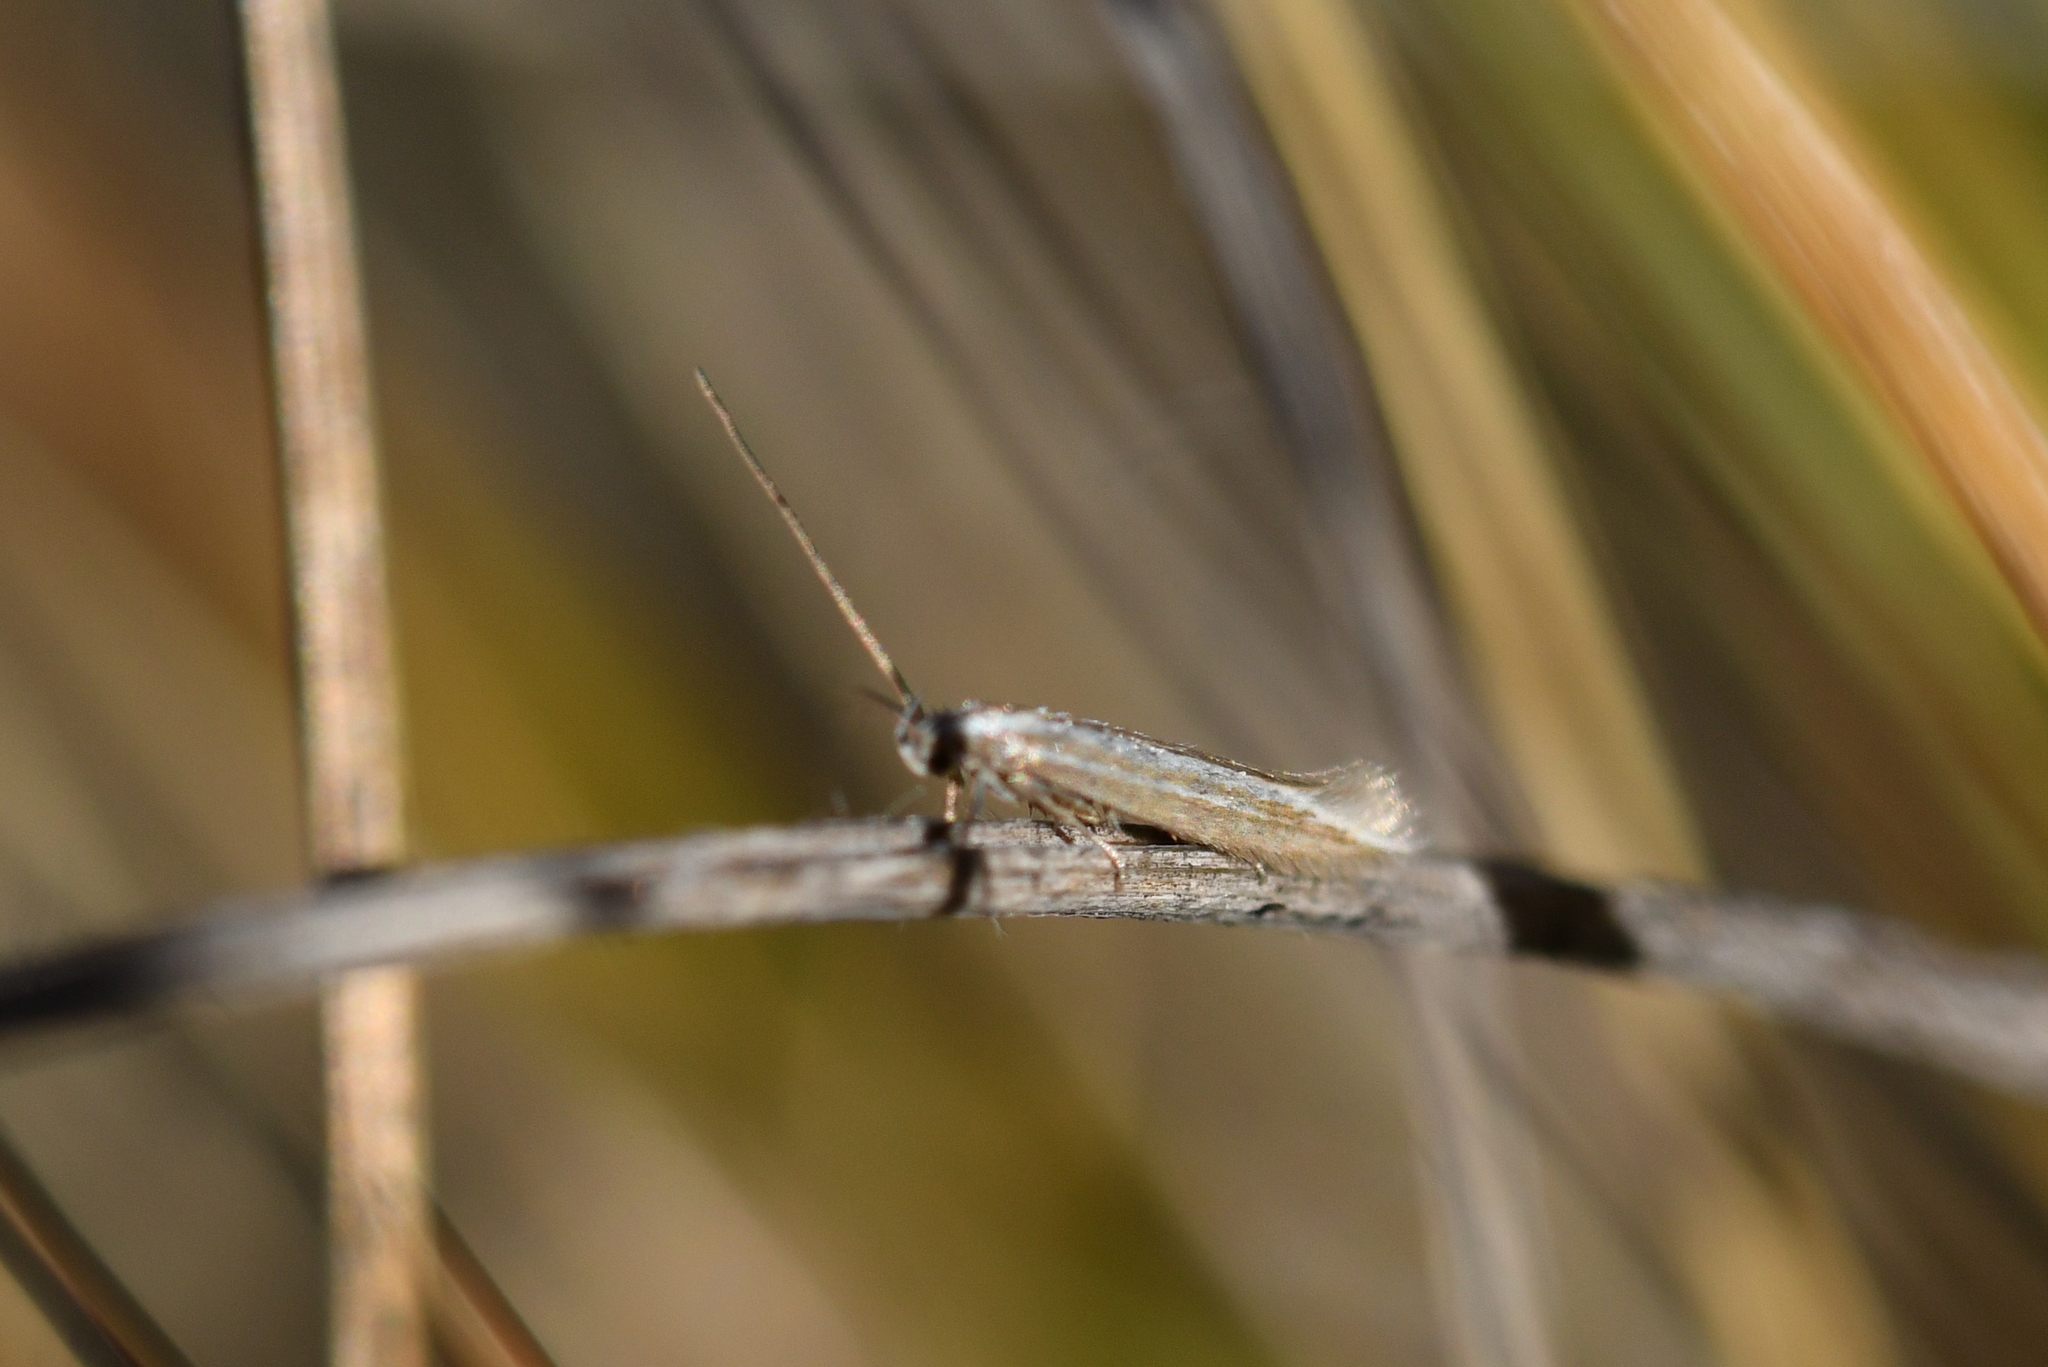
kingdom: Animalia
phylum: Arthropoda
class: Insecta
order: Lepidoptera
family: Elachistidae
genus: Elachista
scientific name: Elachista thallophora
